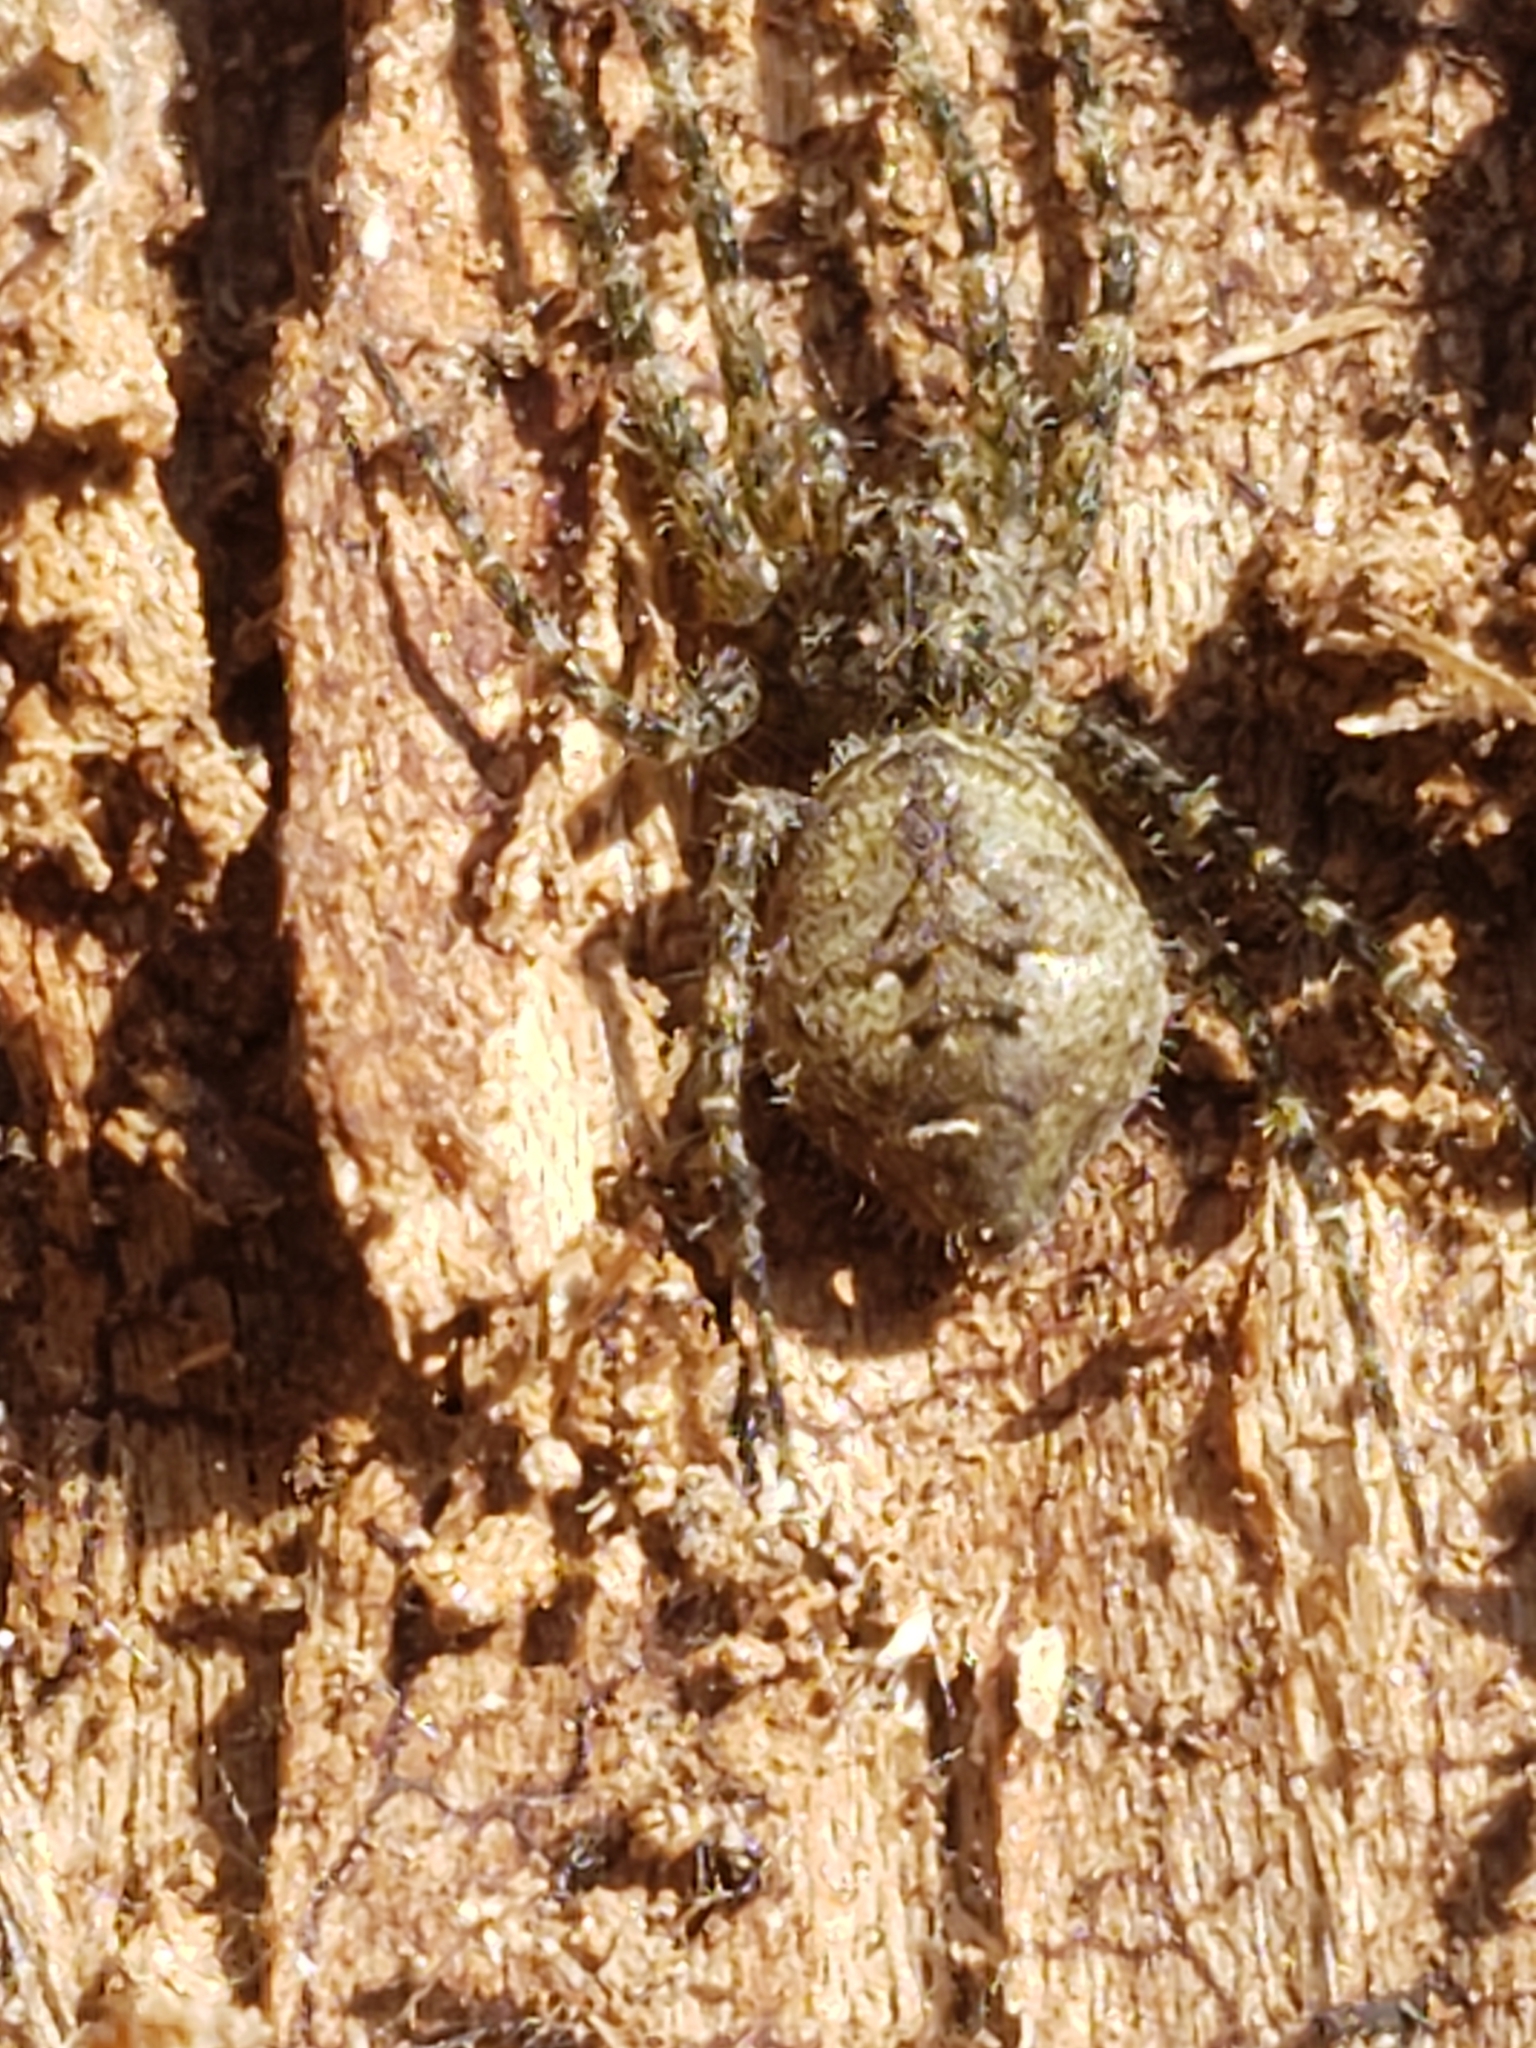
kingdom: Animalia
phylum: Arthropoda
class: Arachnida
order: Araneae
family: Pisauridae
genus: Dolomedes
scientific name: Dolomedes albineus
